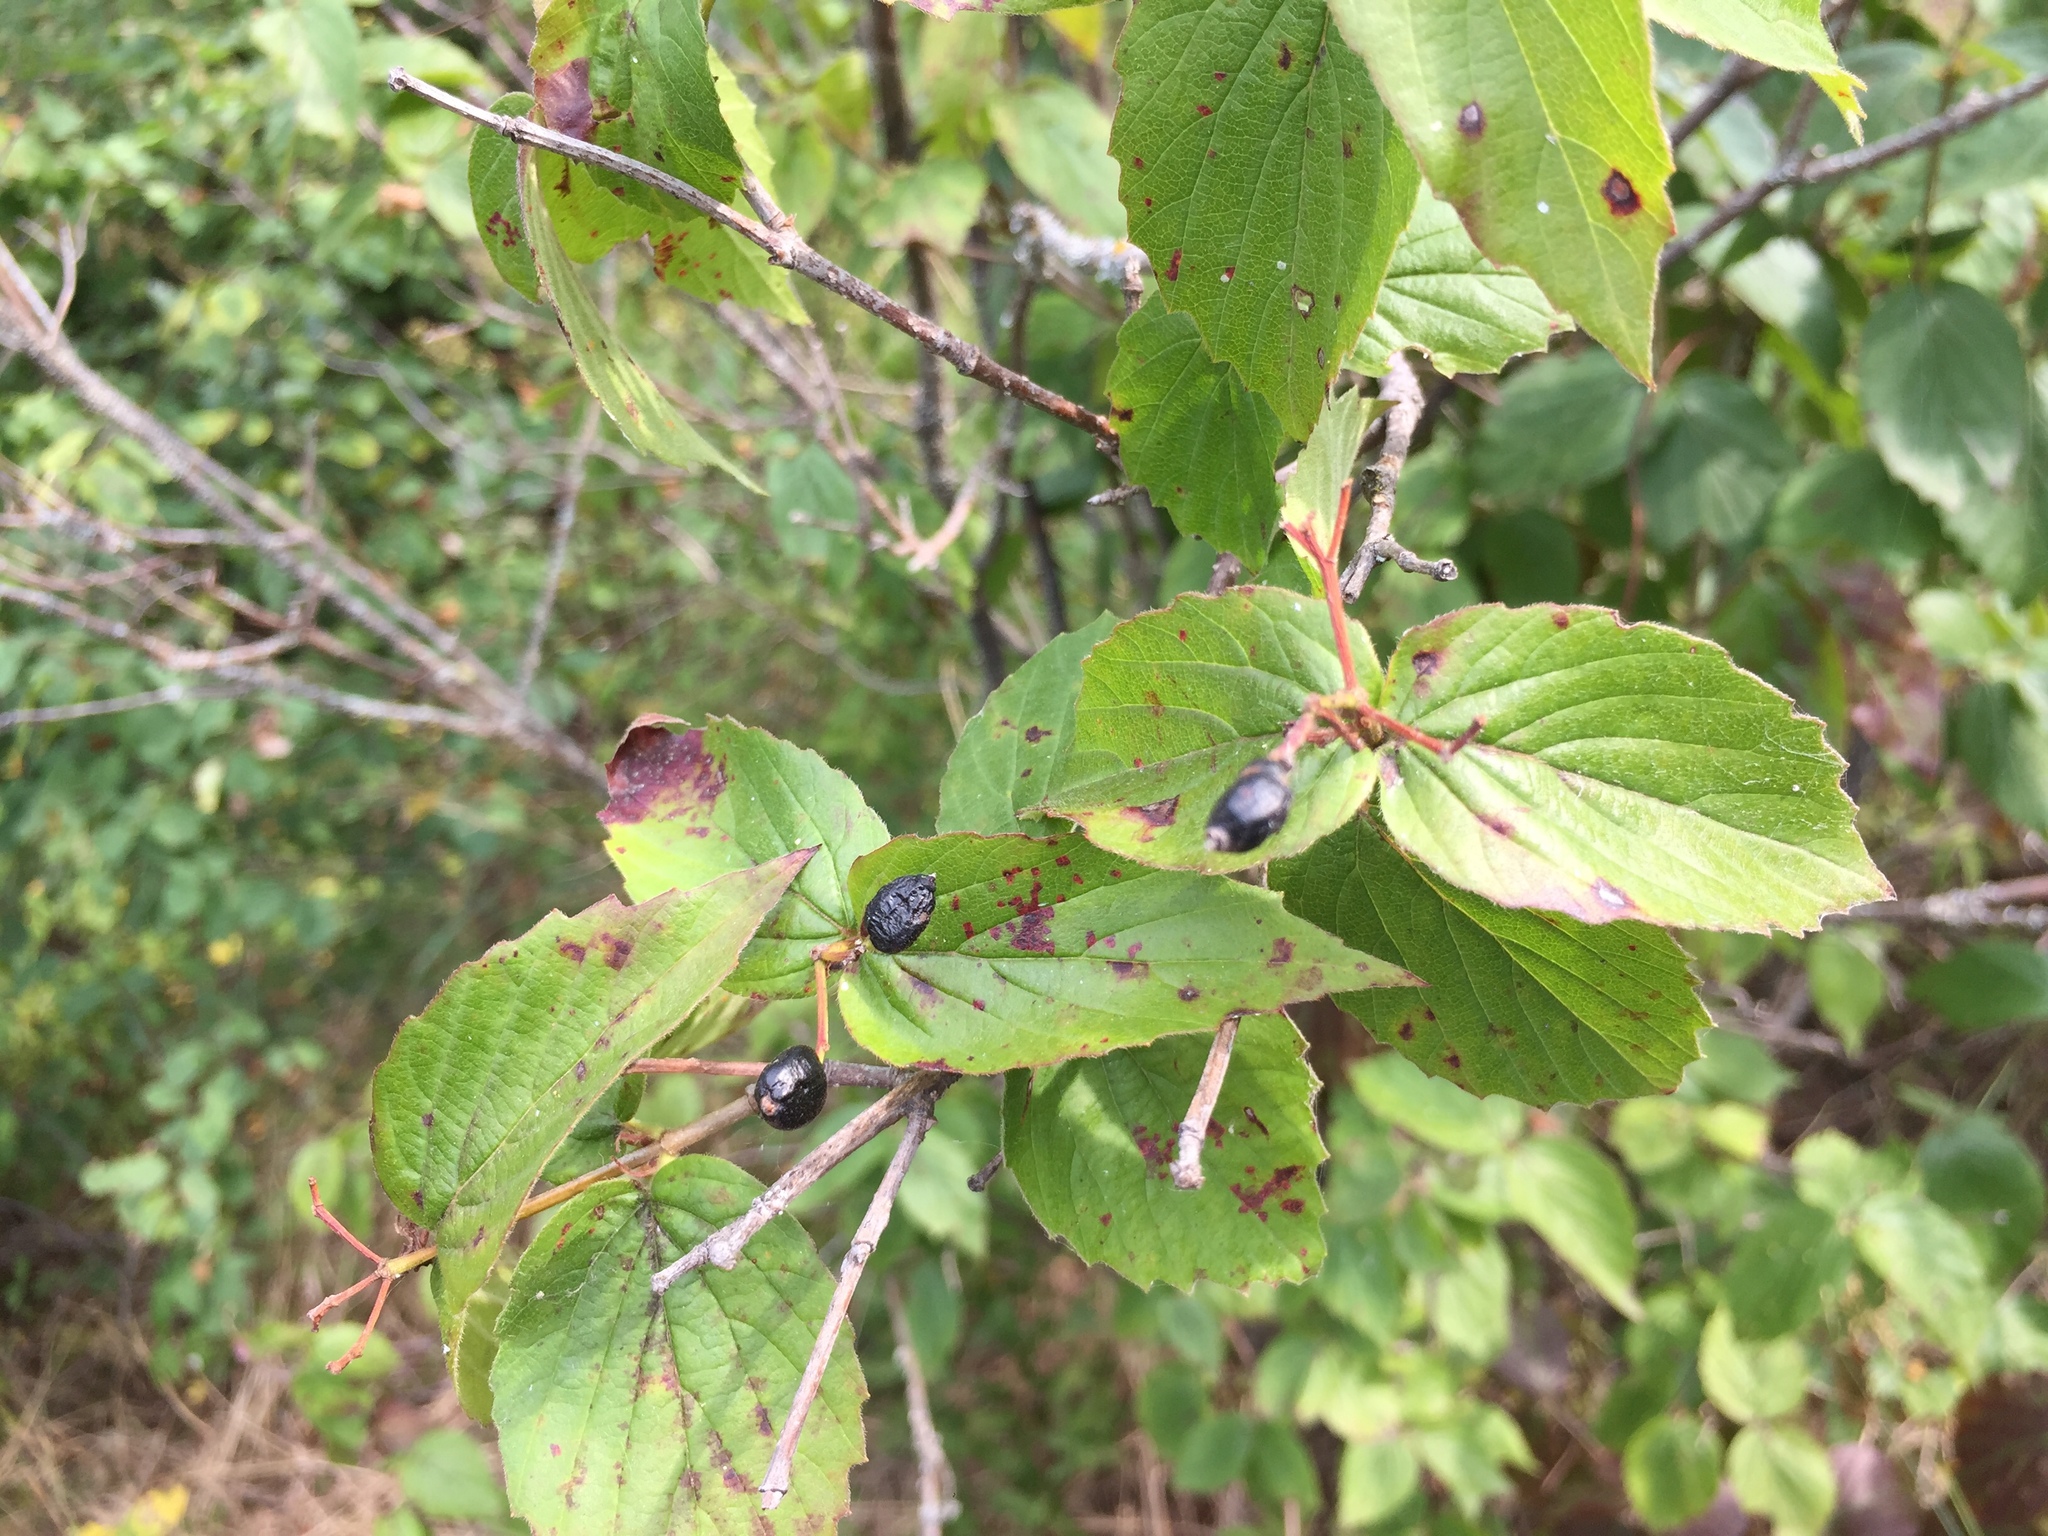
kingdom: Plantae
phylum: Tracheophyta
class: Magnoliopsida
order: Dipsacales
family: Viburnaceae
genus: Viburnum
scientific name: Viburnum rafinesqueanum
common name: Downy arrow-wood
